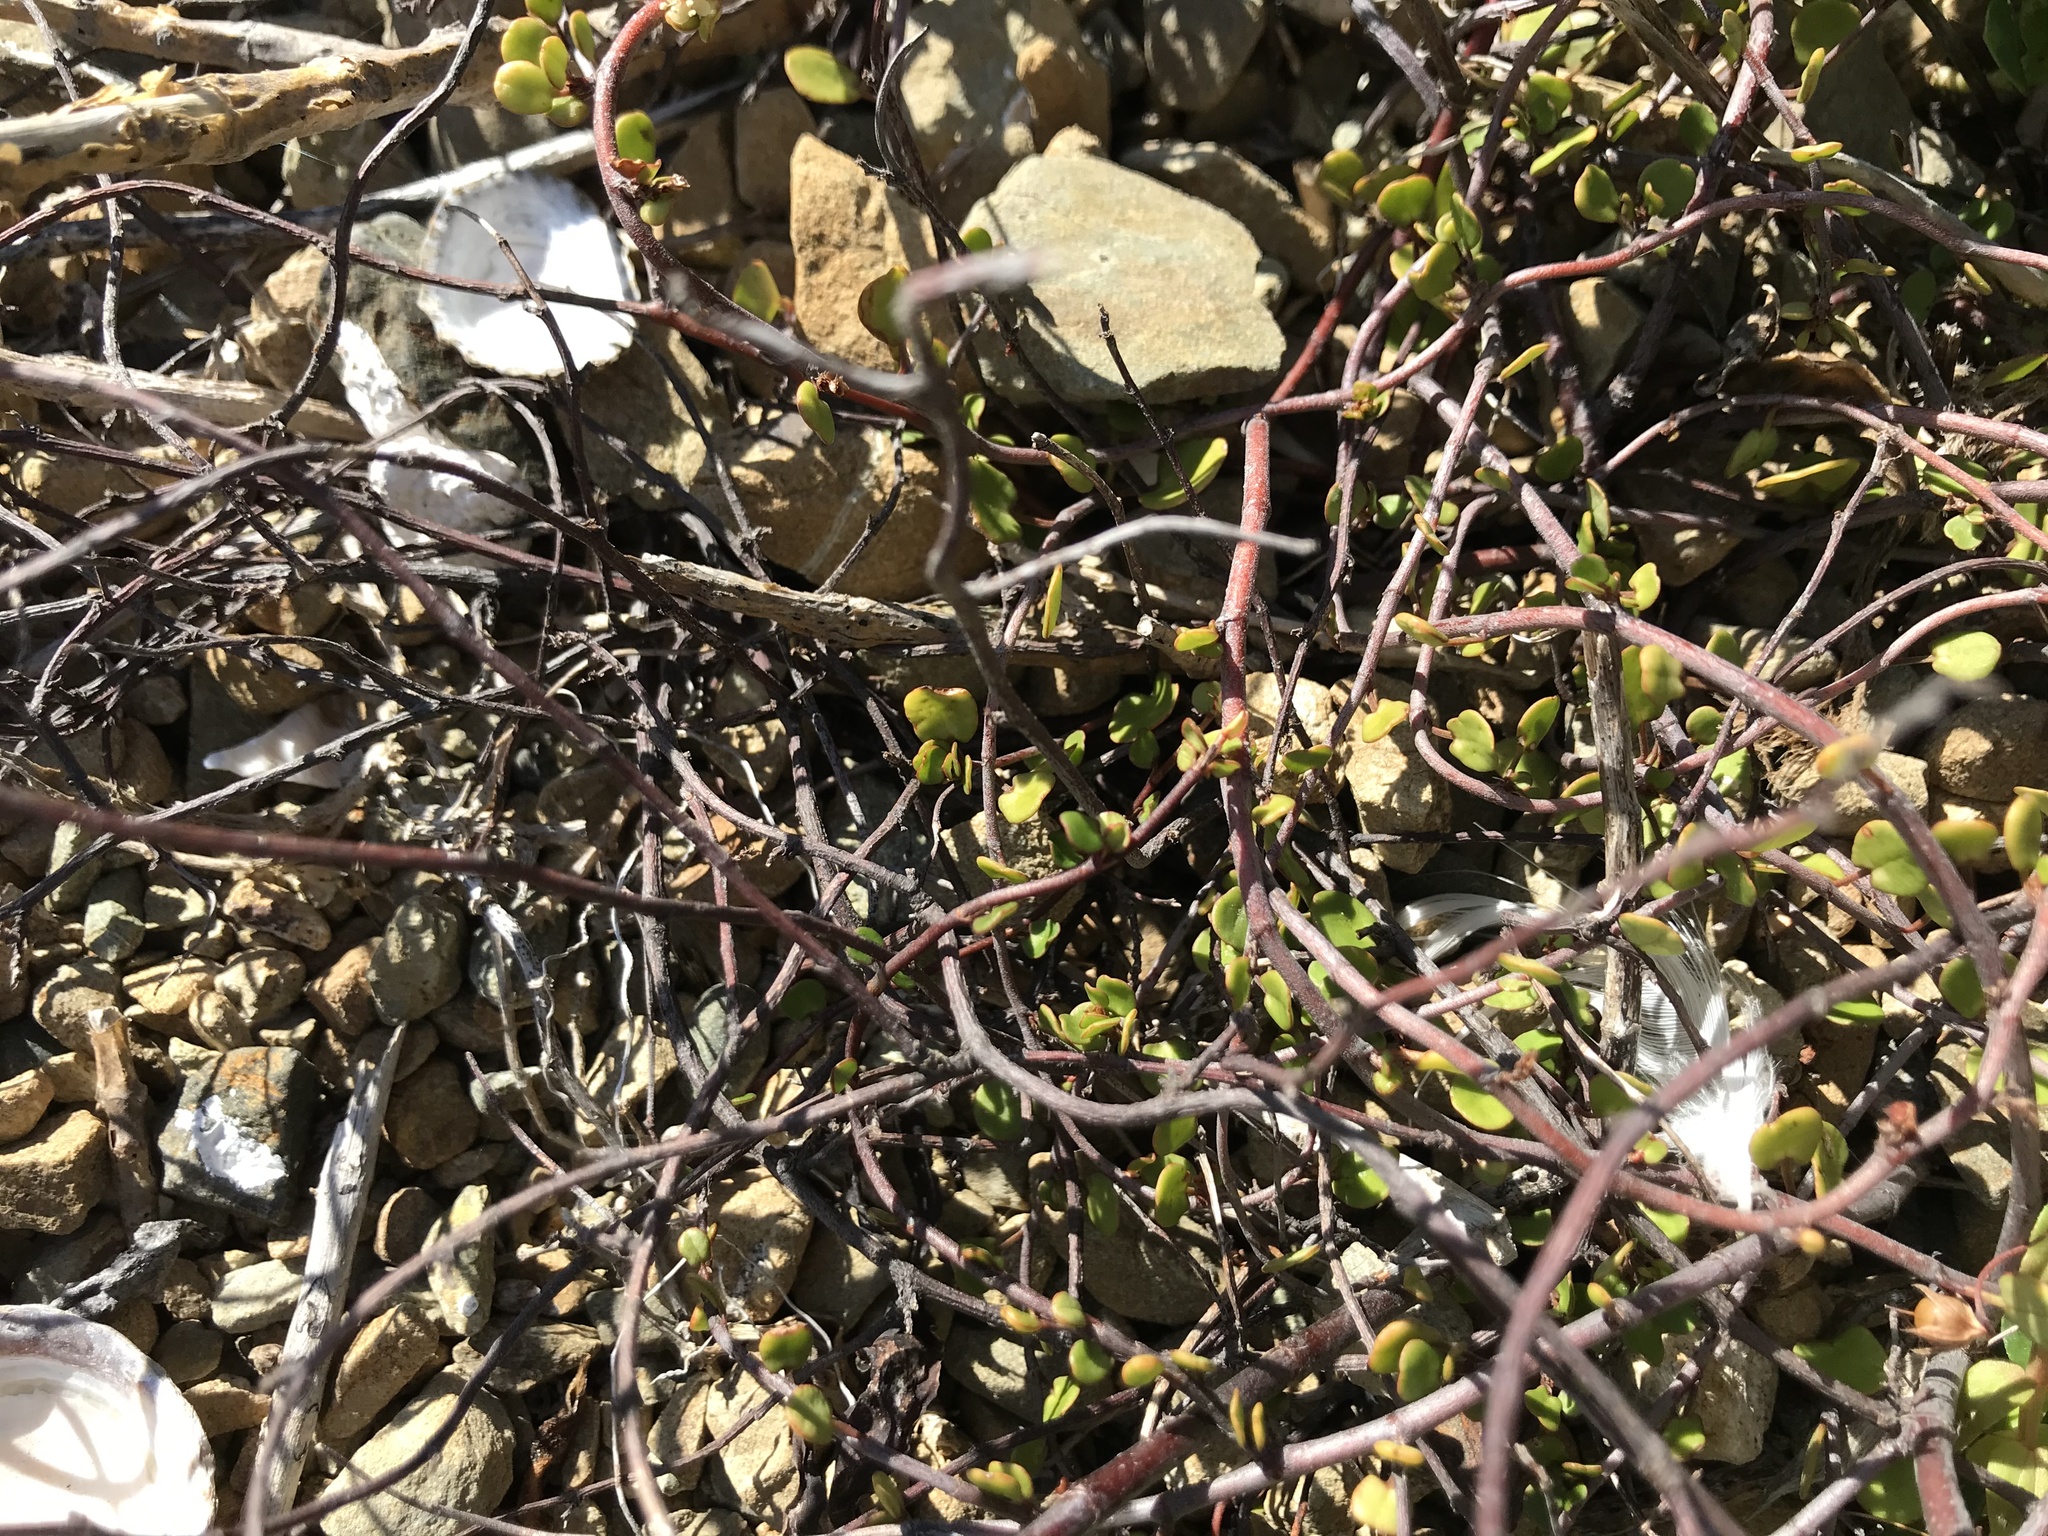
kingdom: Plantae
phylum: Tracheophyta
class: Magnoliopsida
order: Caryophyllales
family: Polygonaceae
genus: Muehlenbeckia
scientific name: Muehlenbeckia complexa
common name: Wireplant
